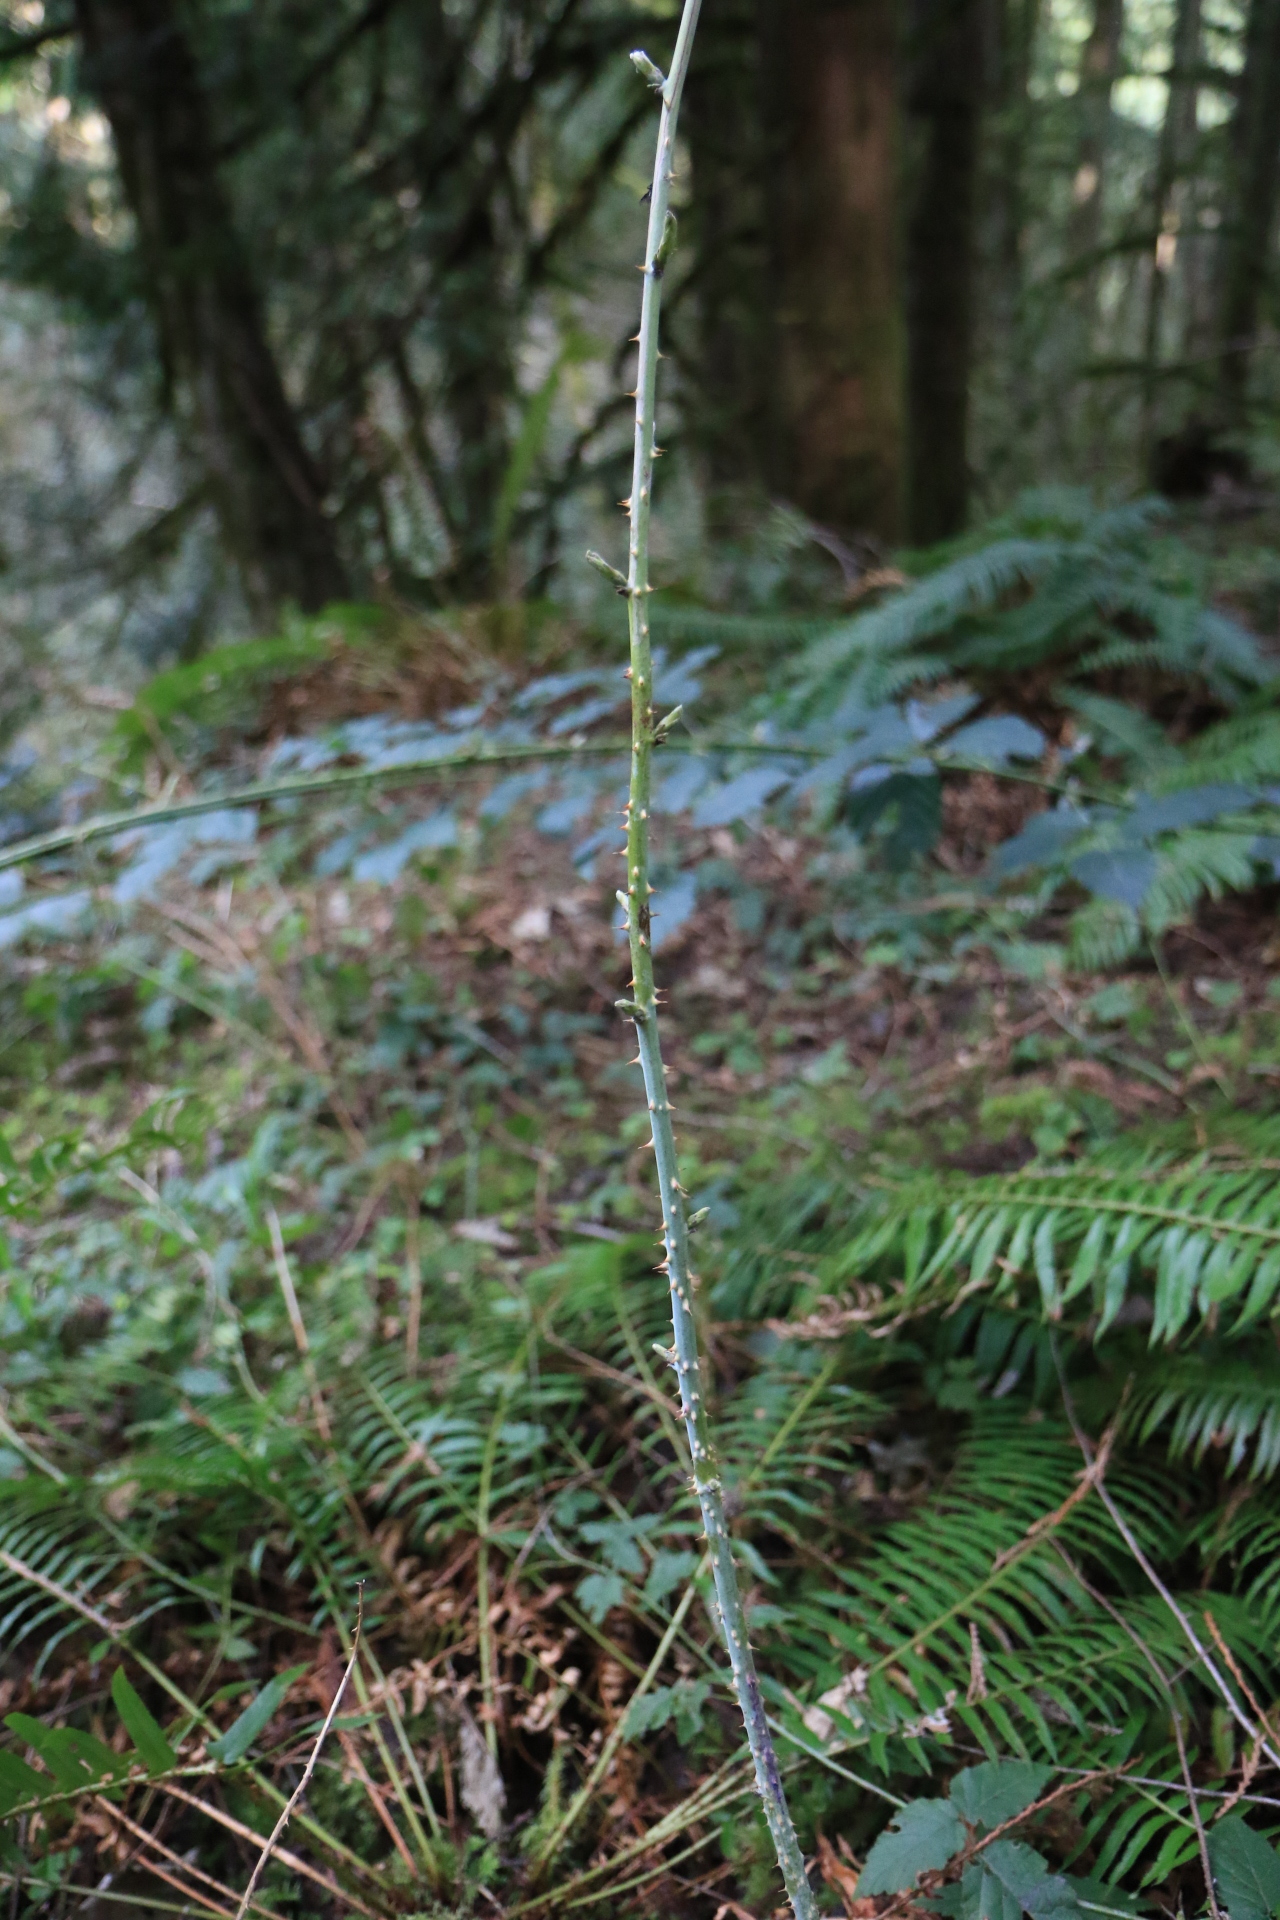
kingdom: Plantae
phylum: Tracheophyta
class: Magnoliopsida
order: Rosales
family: Rosaceae
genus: Rubus
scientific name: Rubus leucodermis
